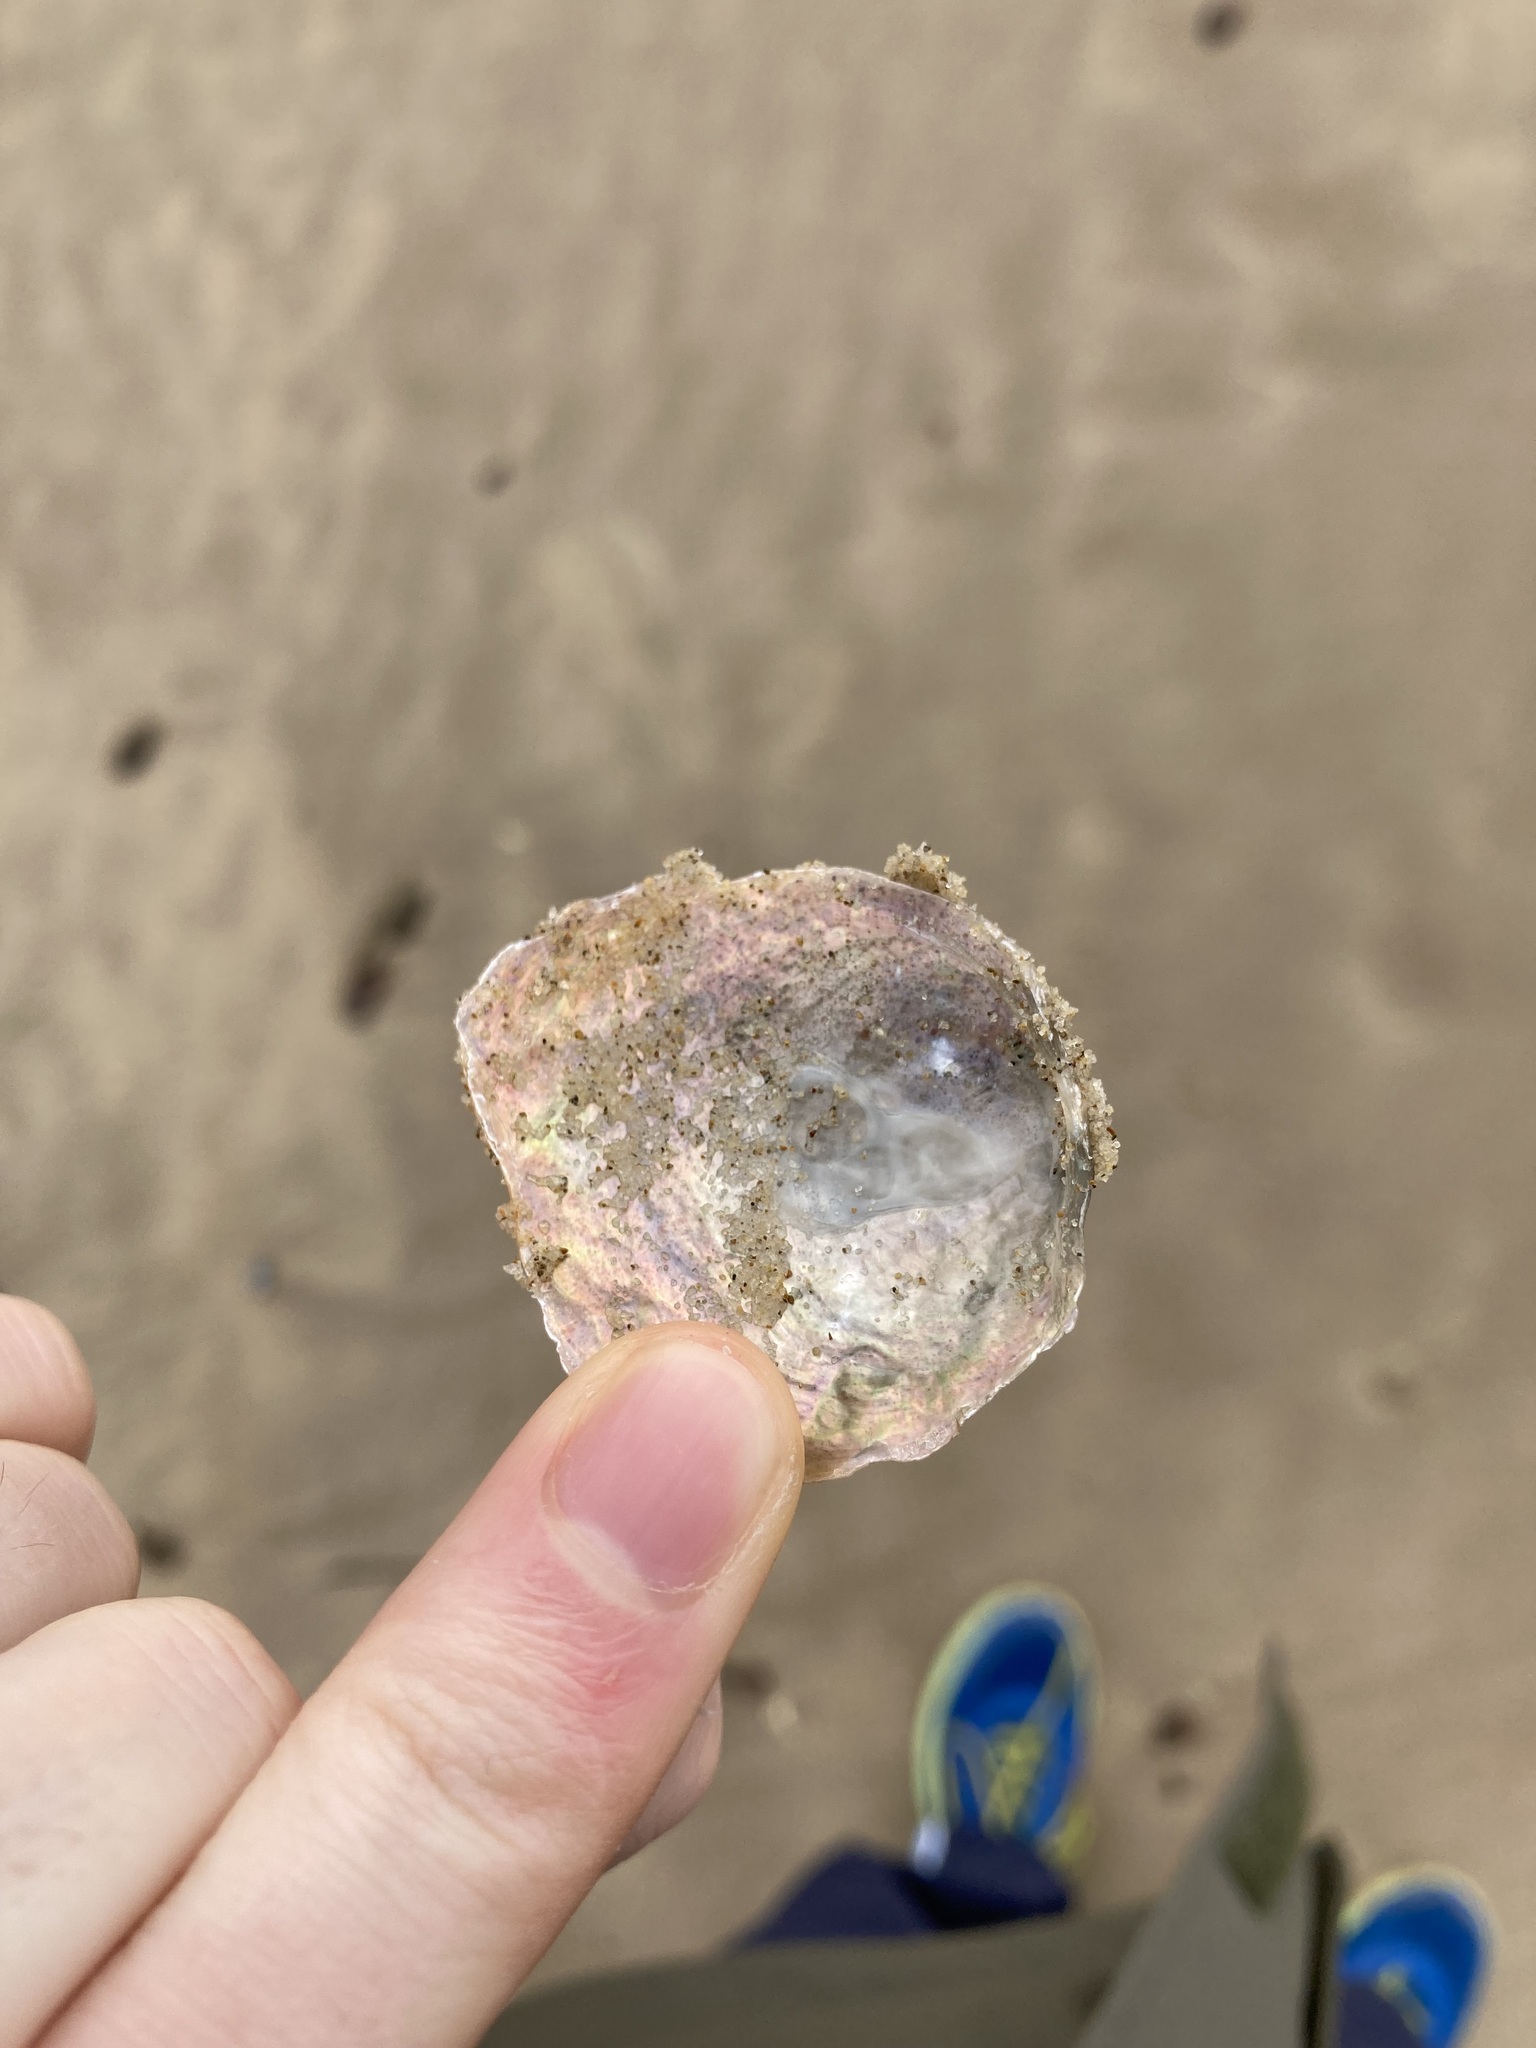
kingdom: Animalia
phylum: Mollusca
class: Bivalvia
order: Pectinida
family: Anomiidae
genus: Anomia
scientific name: Anomia trigonopsis
